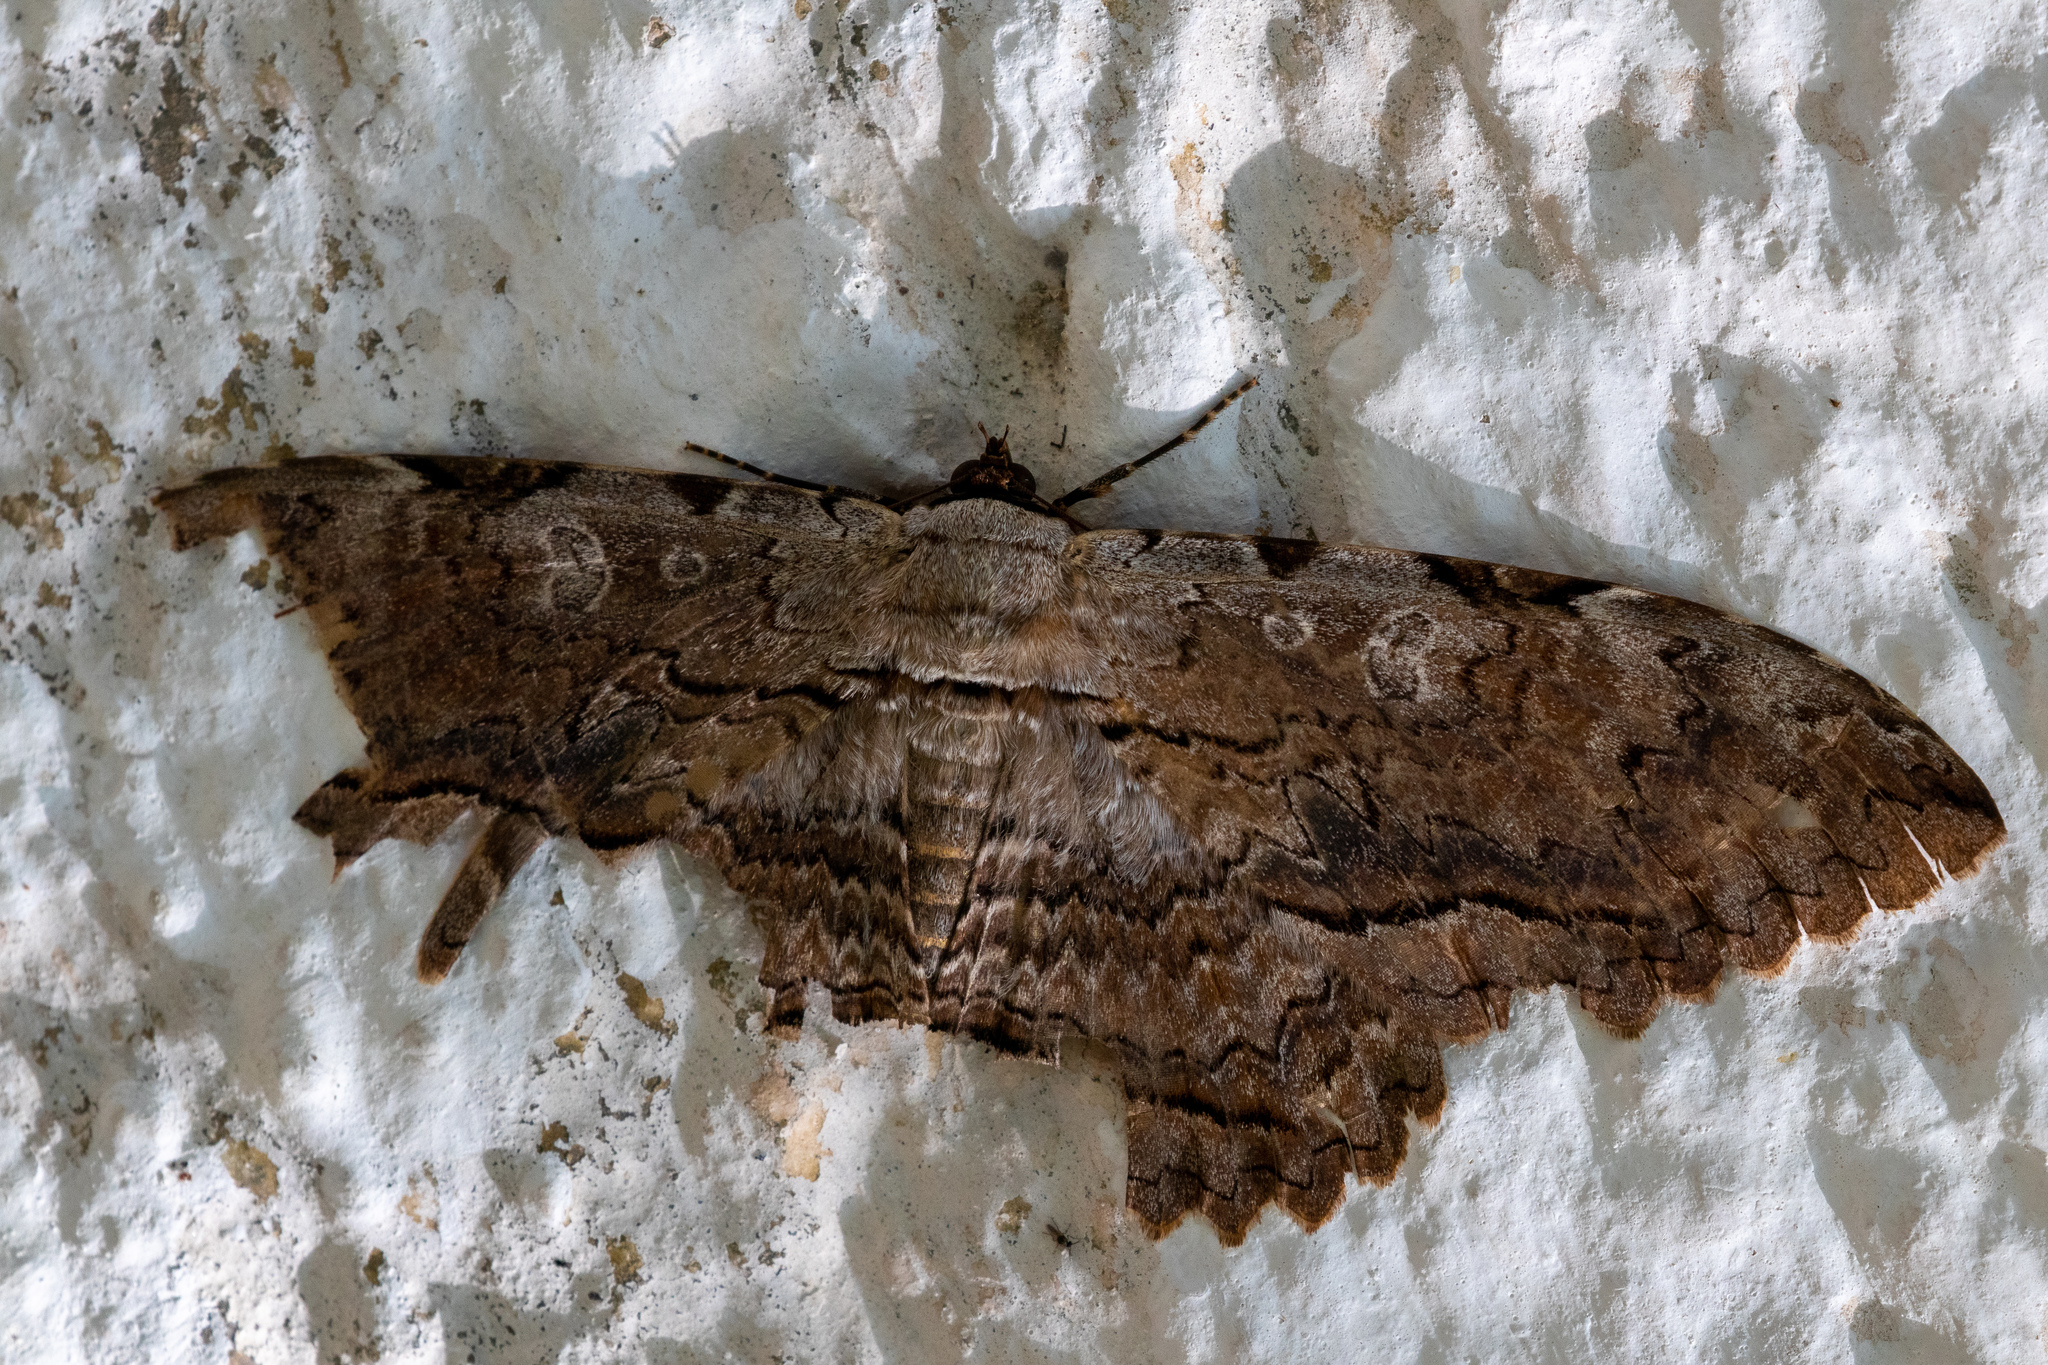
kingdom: Animalia
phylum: Arthropoda
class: Insecta
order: Lepidoptera
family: Erebidae
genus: Thysania
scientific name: Thysania zenobia
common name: Owl moth
